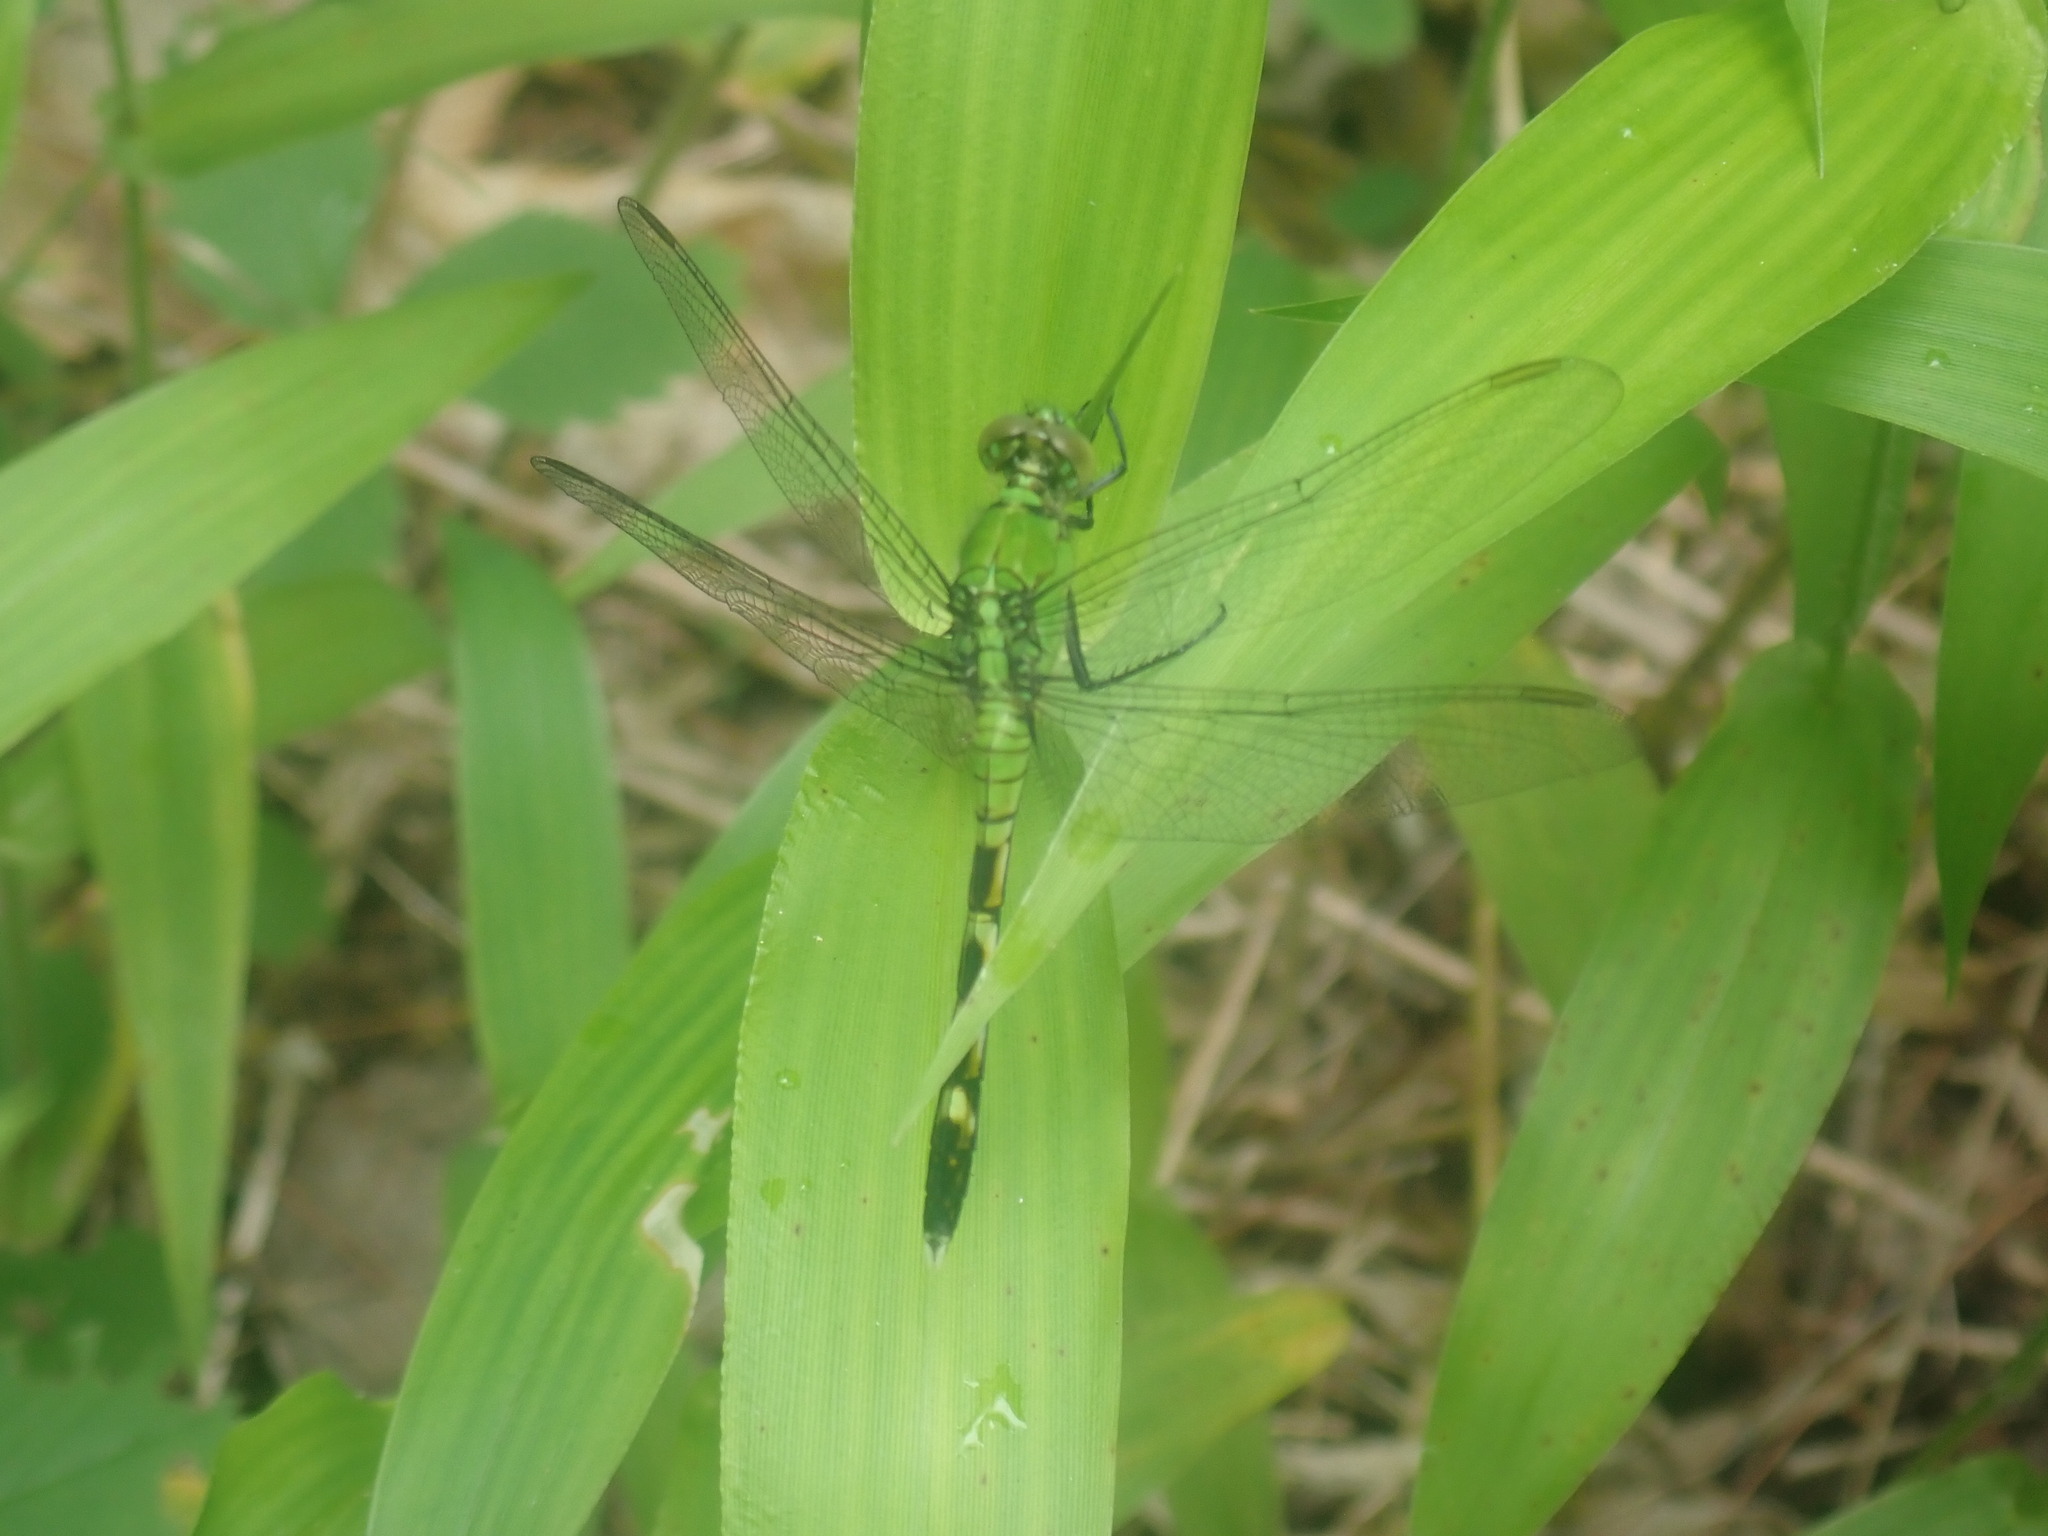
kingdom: Animalia
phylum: Arthropoda
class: Insecta
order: Odonata
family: Libellulidae
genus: Erythemis
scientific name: Erythemis simplicicollis
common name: Eastern pondhawk
